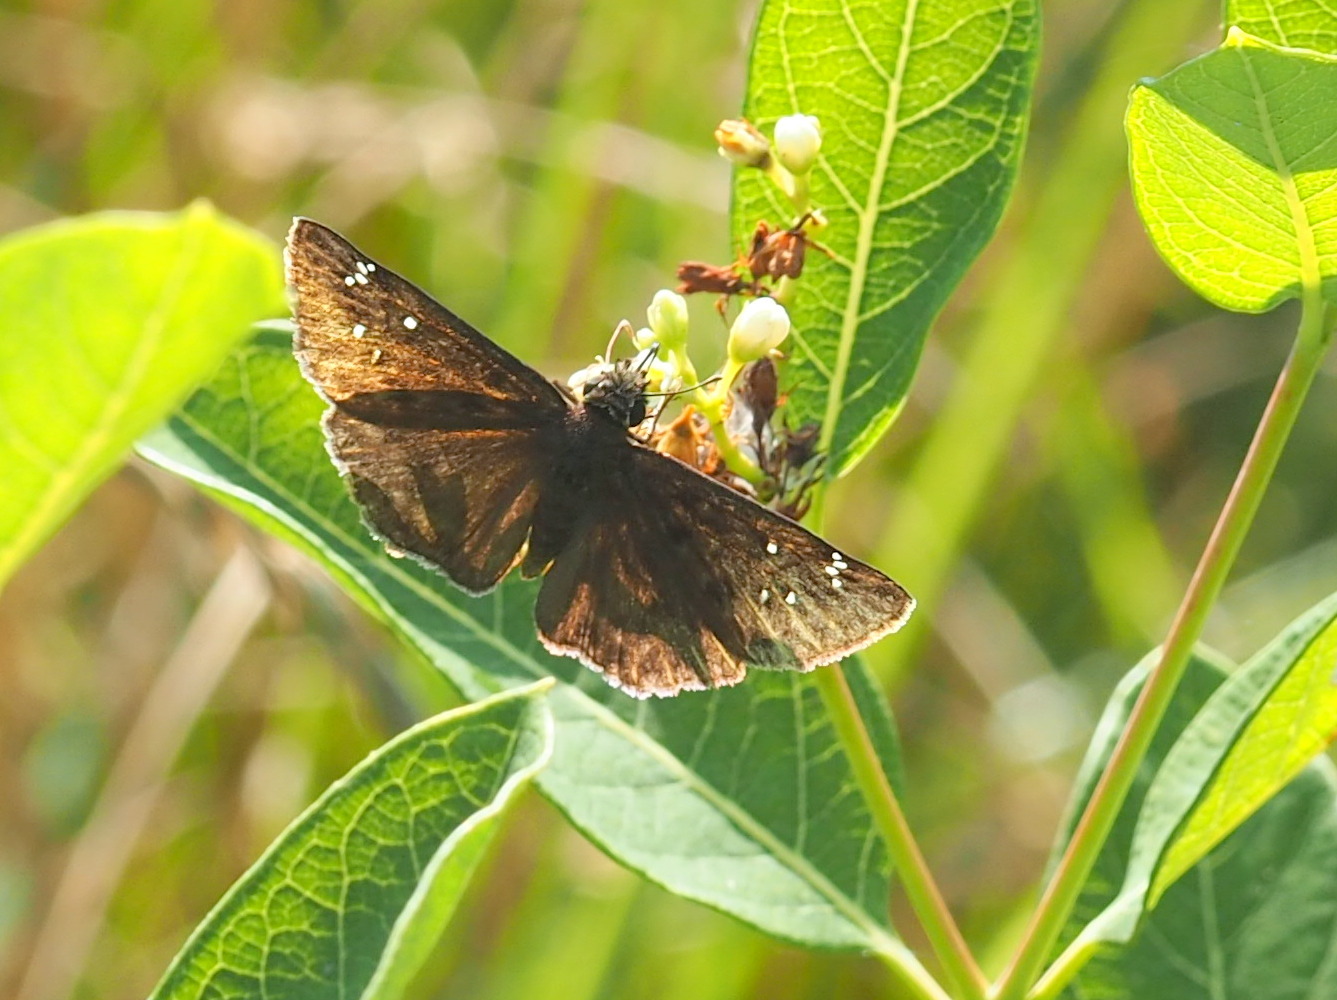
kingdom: Animalia
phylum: Arthropoda
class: Insecta
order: Lepidoptera
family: Hesperiidae
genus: Erynnis
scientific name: Erynnis horatius
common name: Horace's duskywing
